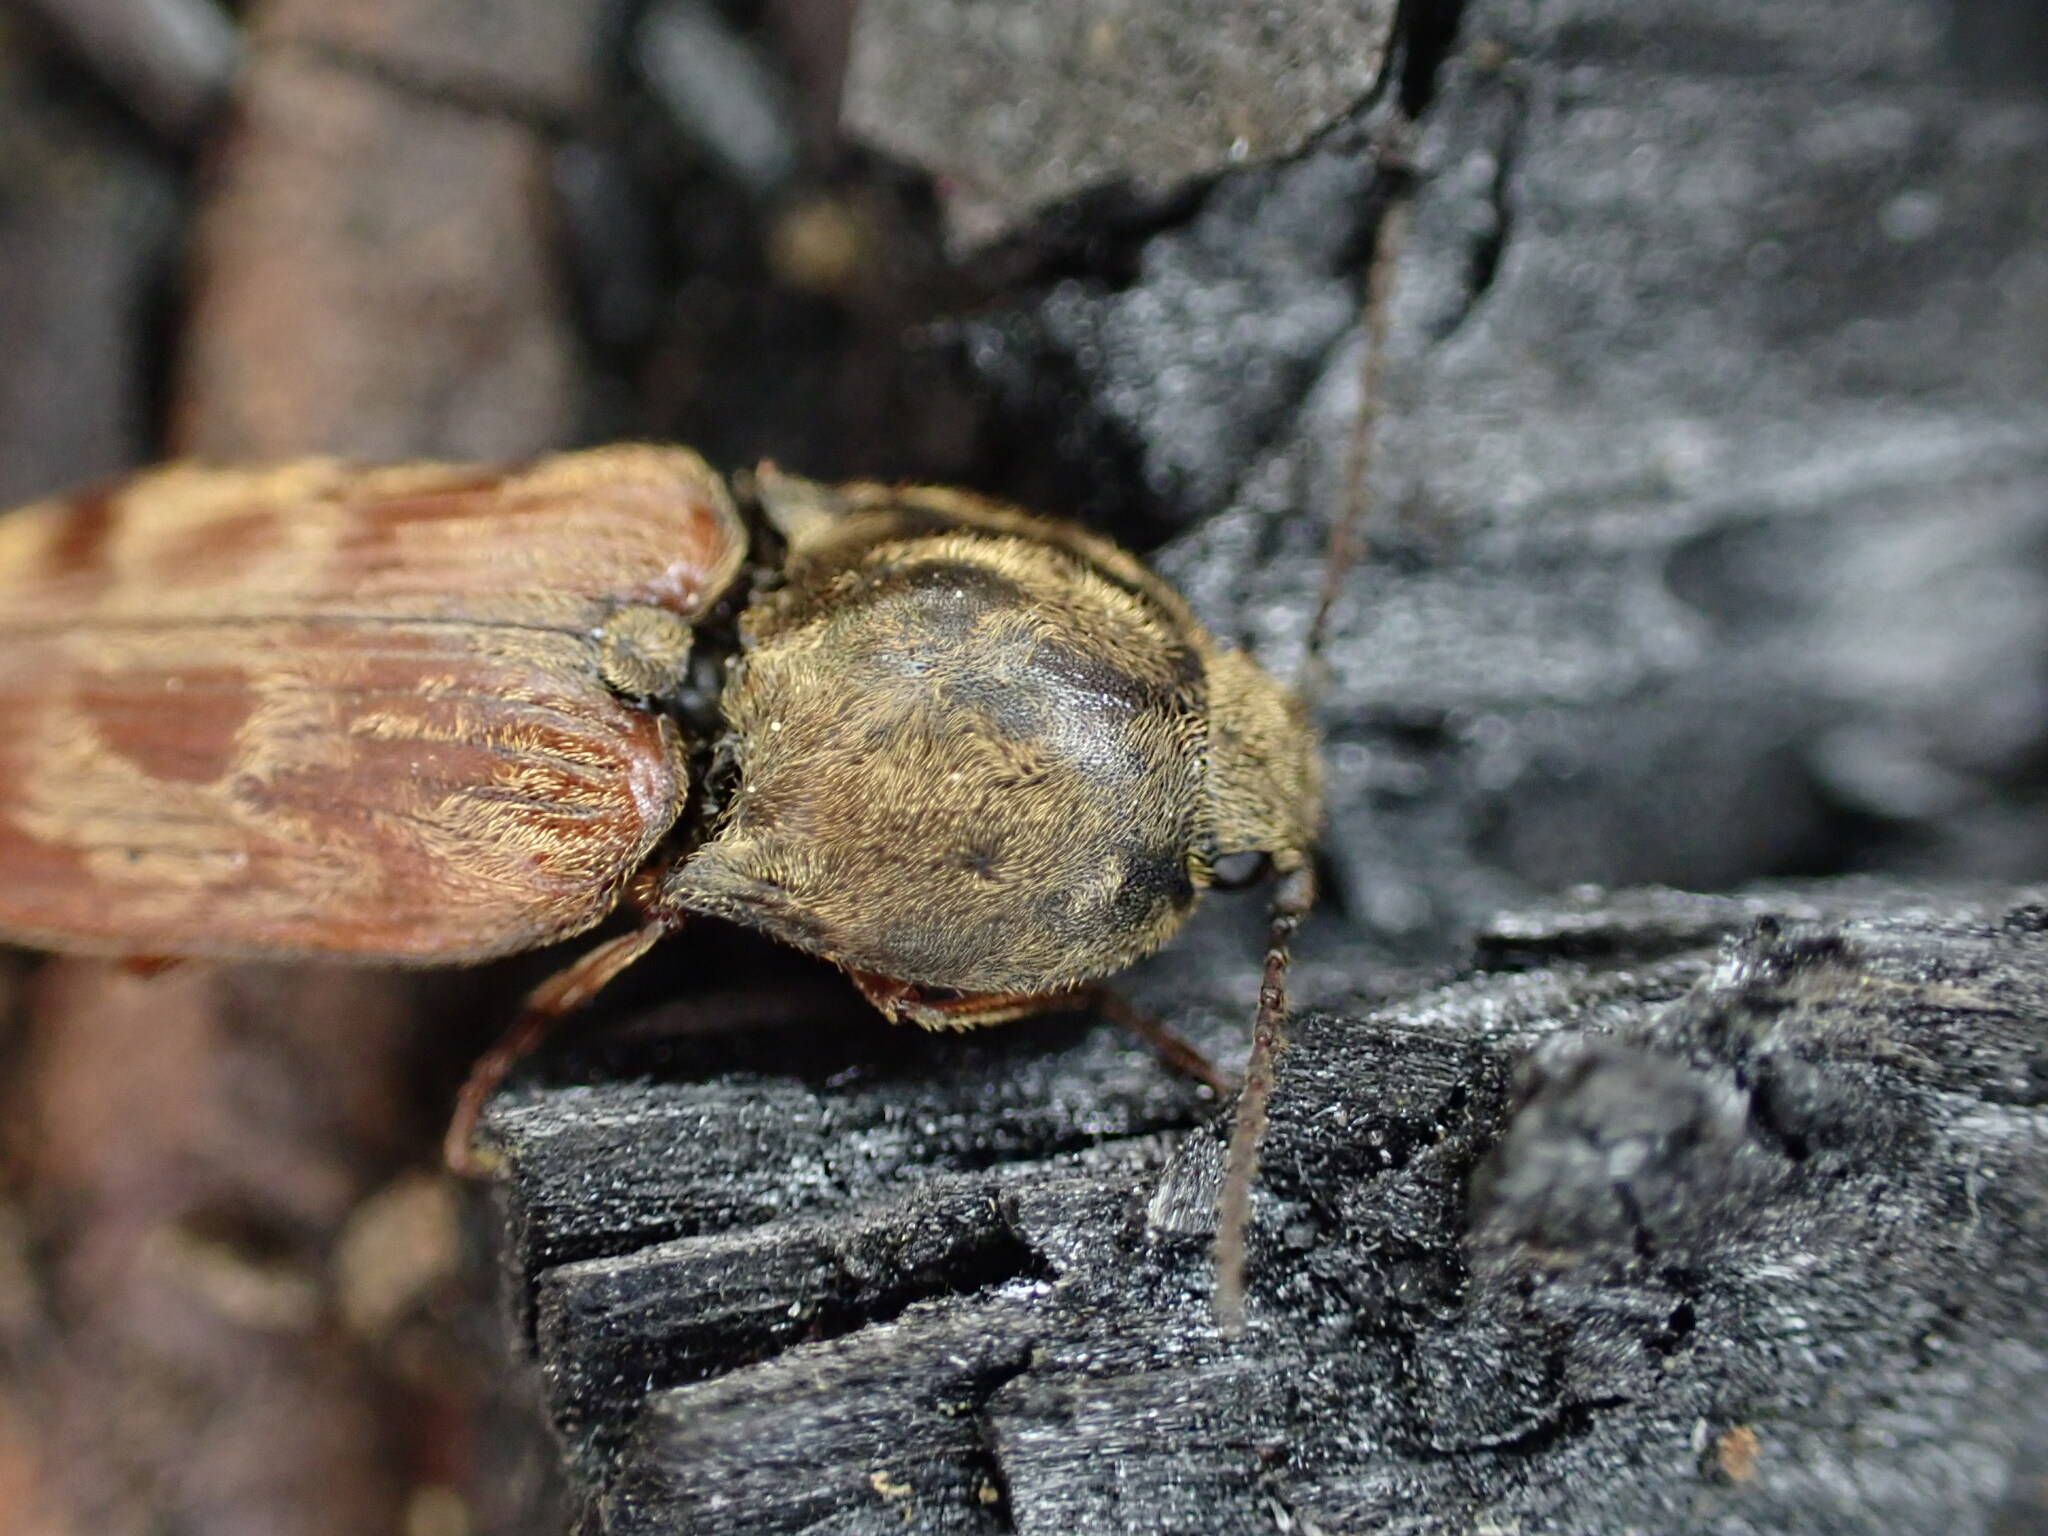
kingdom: Animalia
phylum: Arthropoda
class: Insecta
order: Coleoptera
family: Elateridae
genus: Prosternon
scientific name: Prosternon bombycinum
